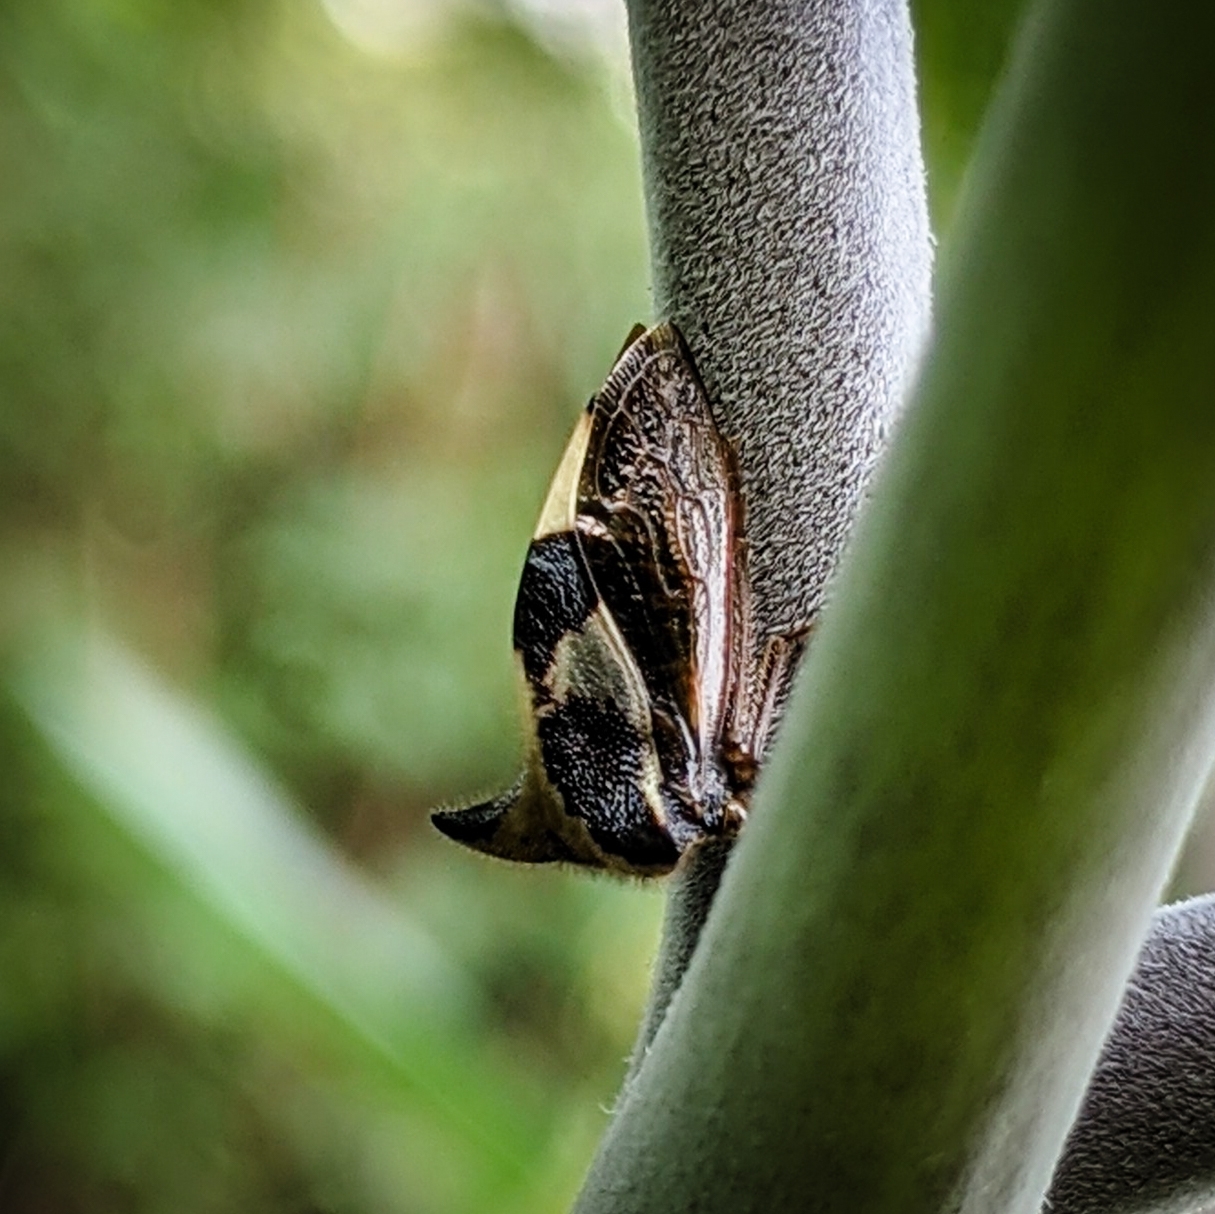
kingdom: Animalia
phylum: Arthropoda
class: Insecta
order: Hemiptera
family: Membracidae
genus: Stictocephala
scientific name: Stictocephala diceros
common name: Two-horned treehopper
